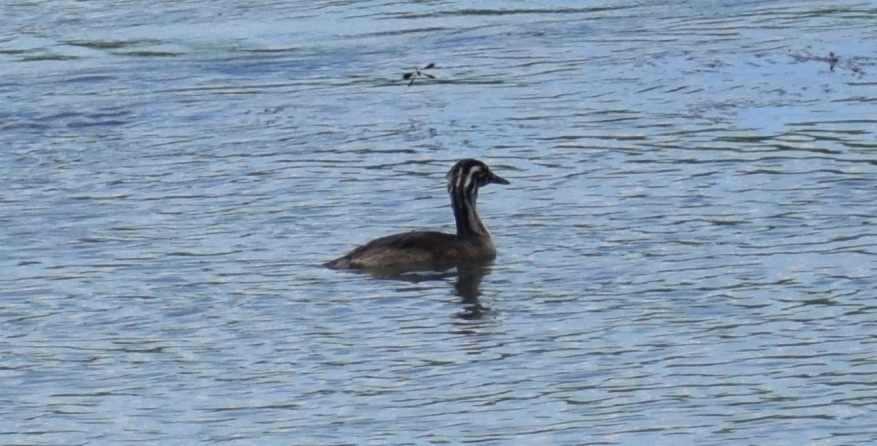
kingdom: Animalia
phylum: Chordata
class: Aves
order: Podicipediformes
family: Podicipedidae
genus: Podiceps
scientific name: Podiceps cristatus
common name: Great crested grebe
